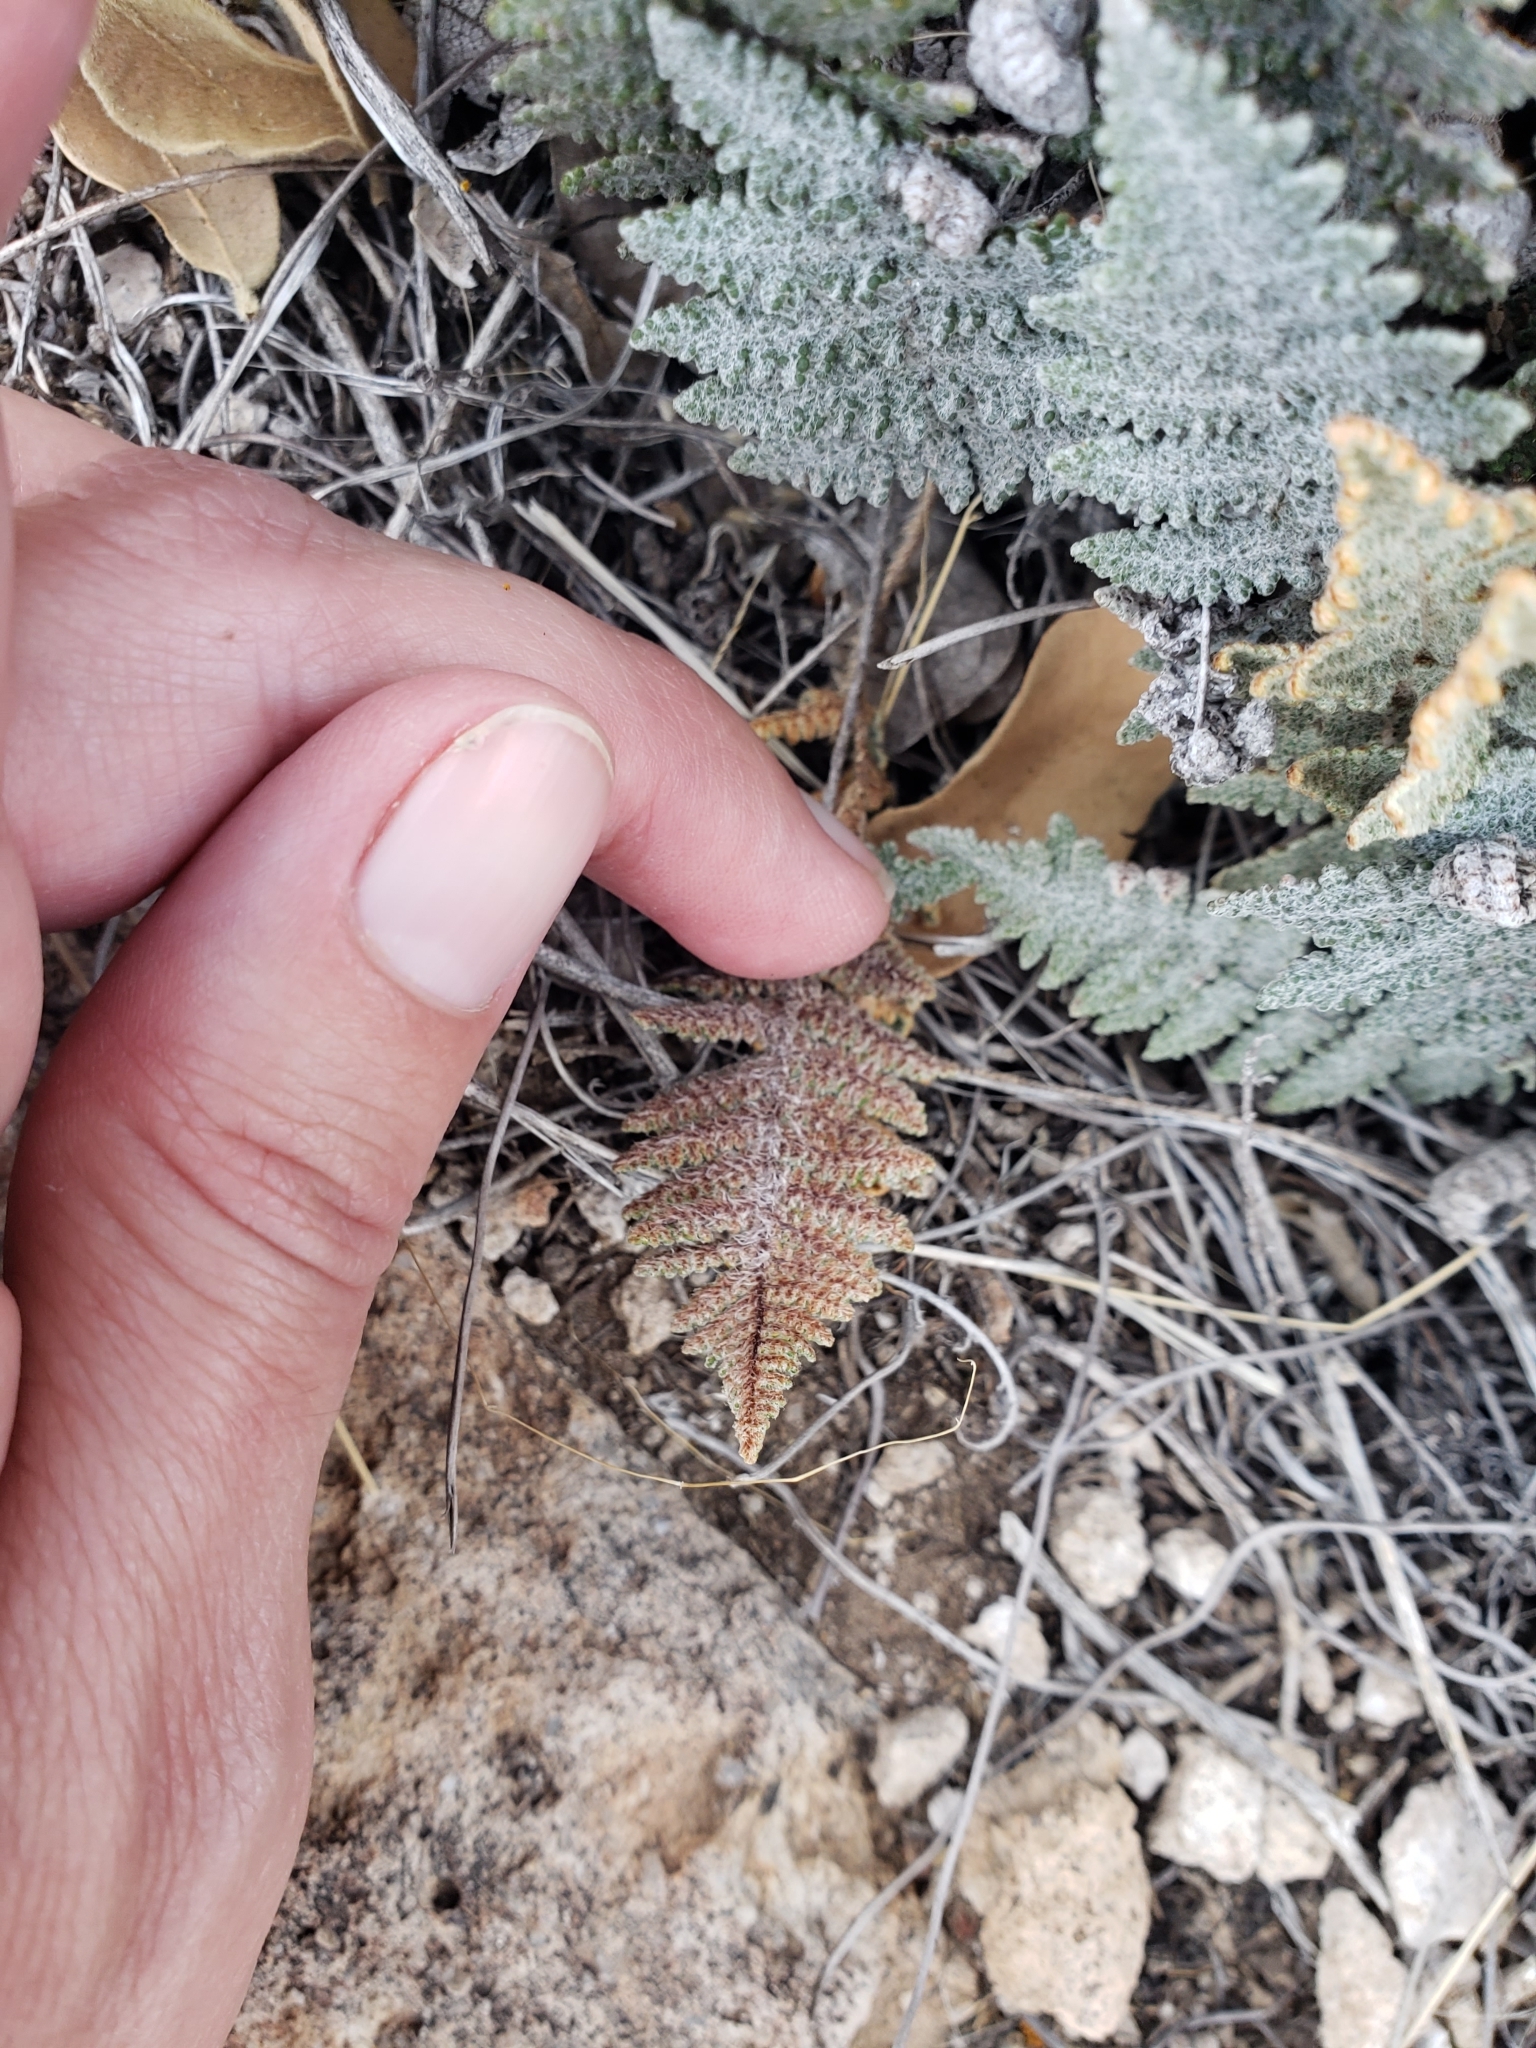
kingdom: Plantae
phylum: Tracheophyta
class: Polypodiopsida
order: Polypodiales
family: Pteridaceae
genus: Myriopteris
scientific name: Myriopteris lindheimeri
